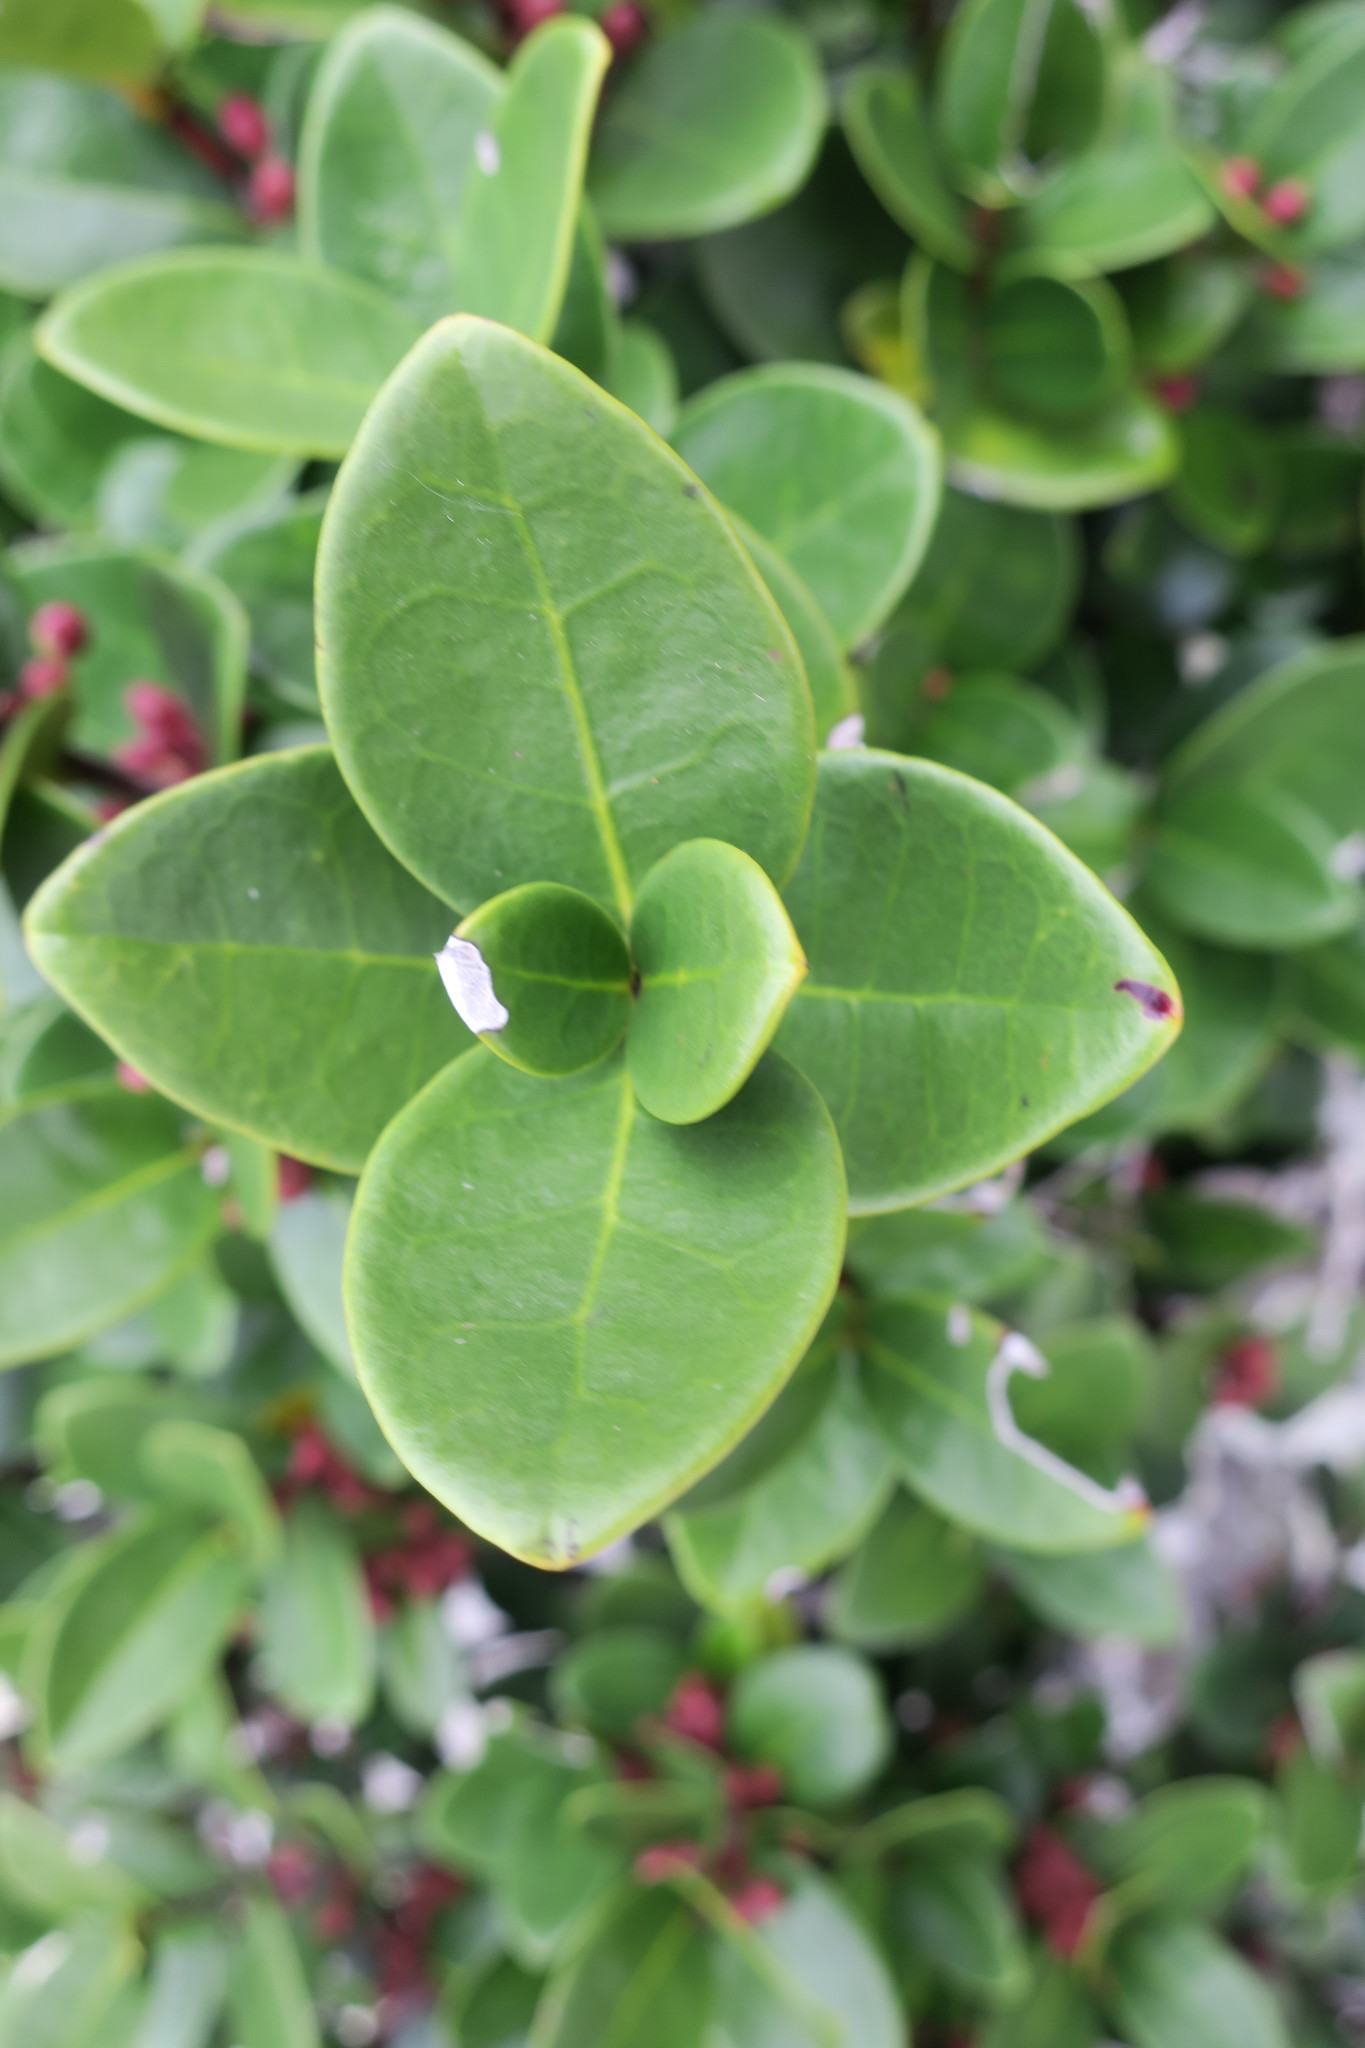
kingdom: Plantae
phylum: Tracheophyta
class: Magnoliopsida
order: Celastrales
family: Celastraceae
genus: Maurocenia
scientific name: Maurocenia frangula
